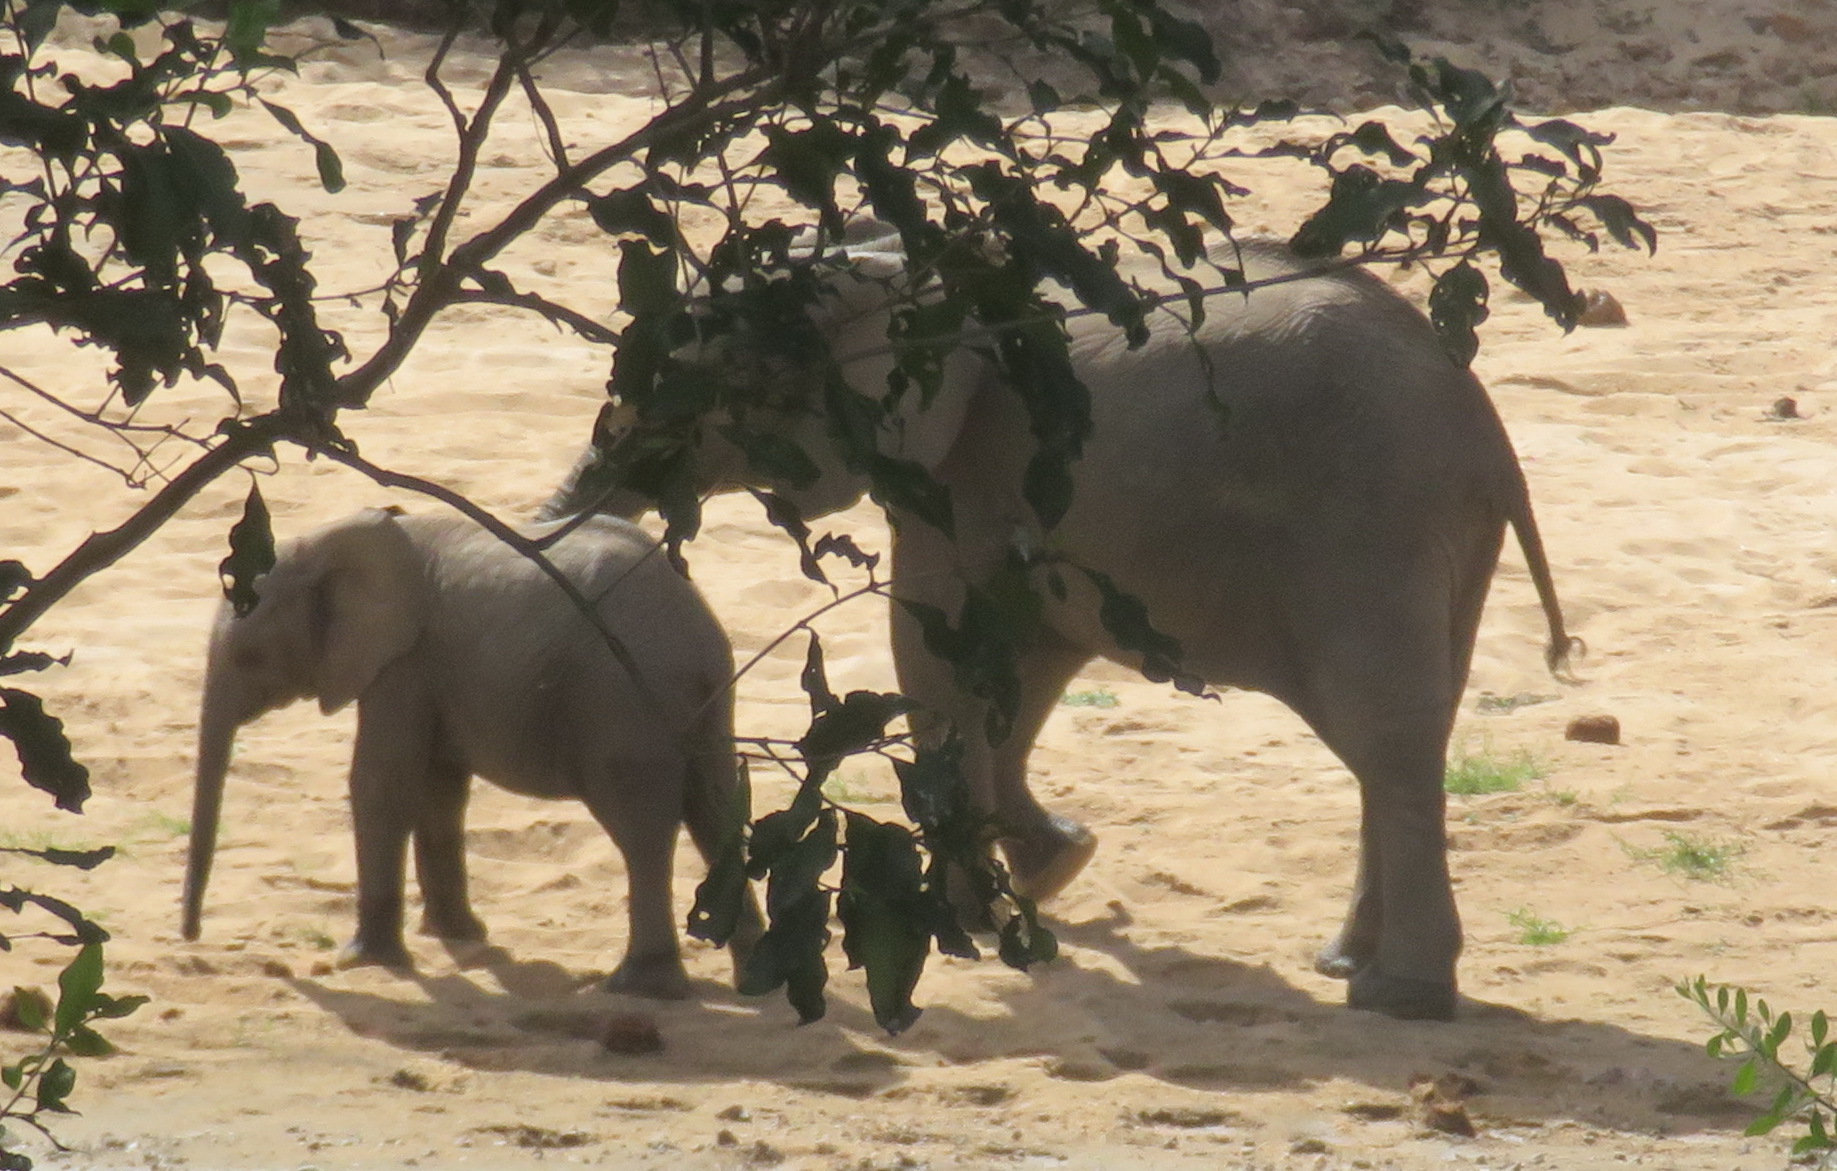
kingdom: Animalia
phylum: Chordata
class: Mammalia
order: Proboscidea
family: Elephantidae
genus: Loxodonta
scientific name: Loxodonta africana
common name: African elephant
